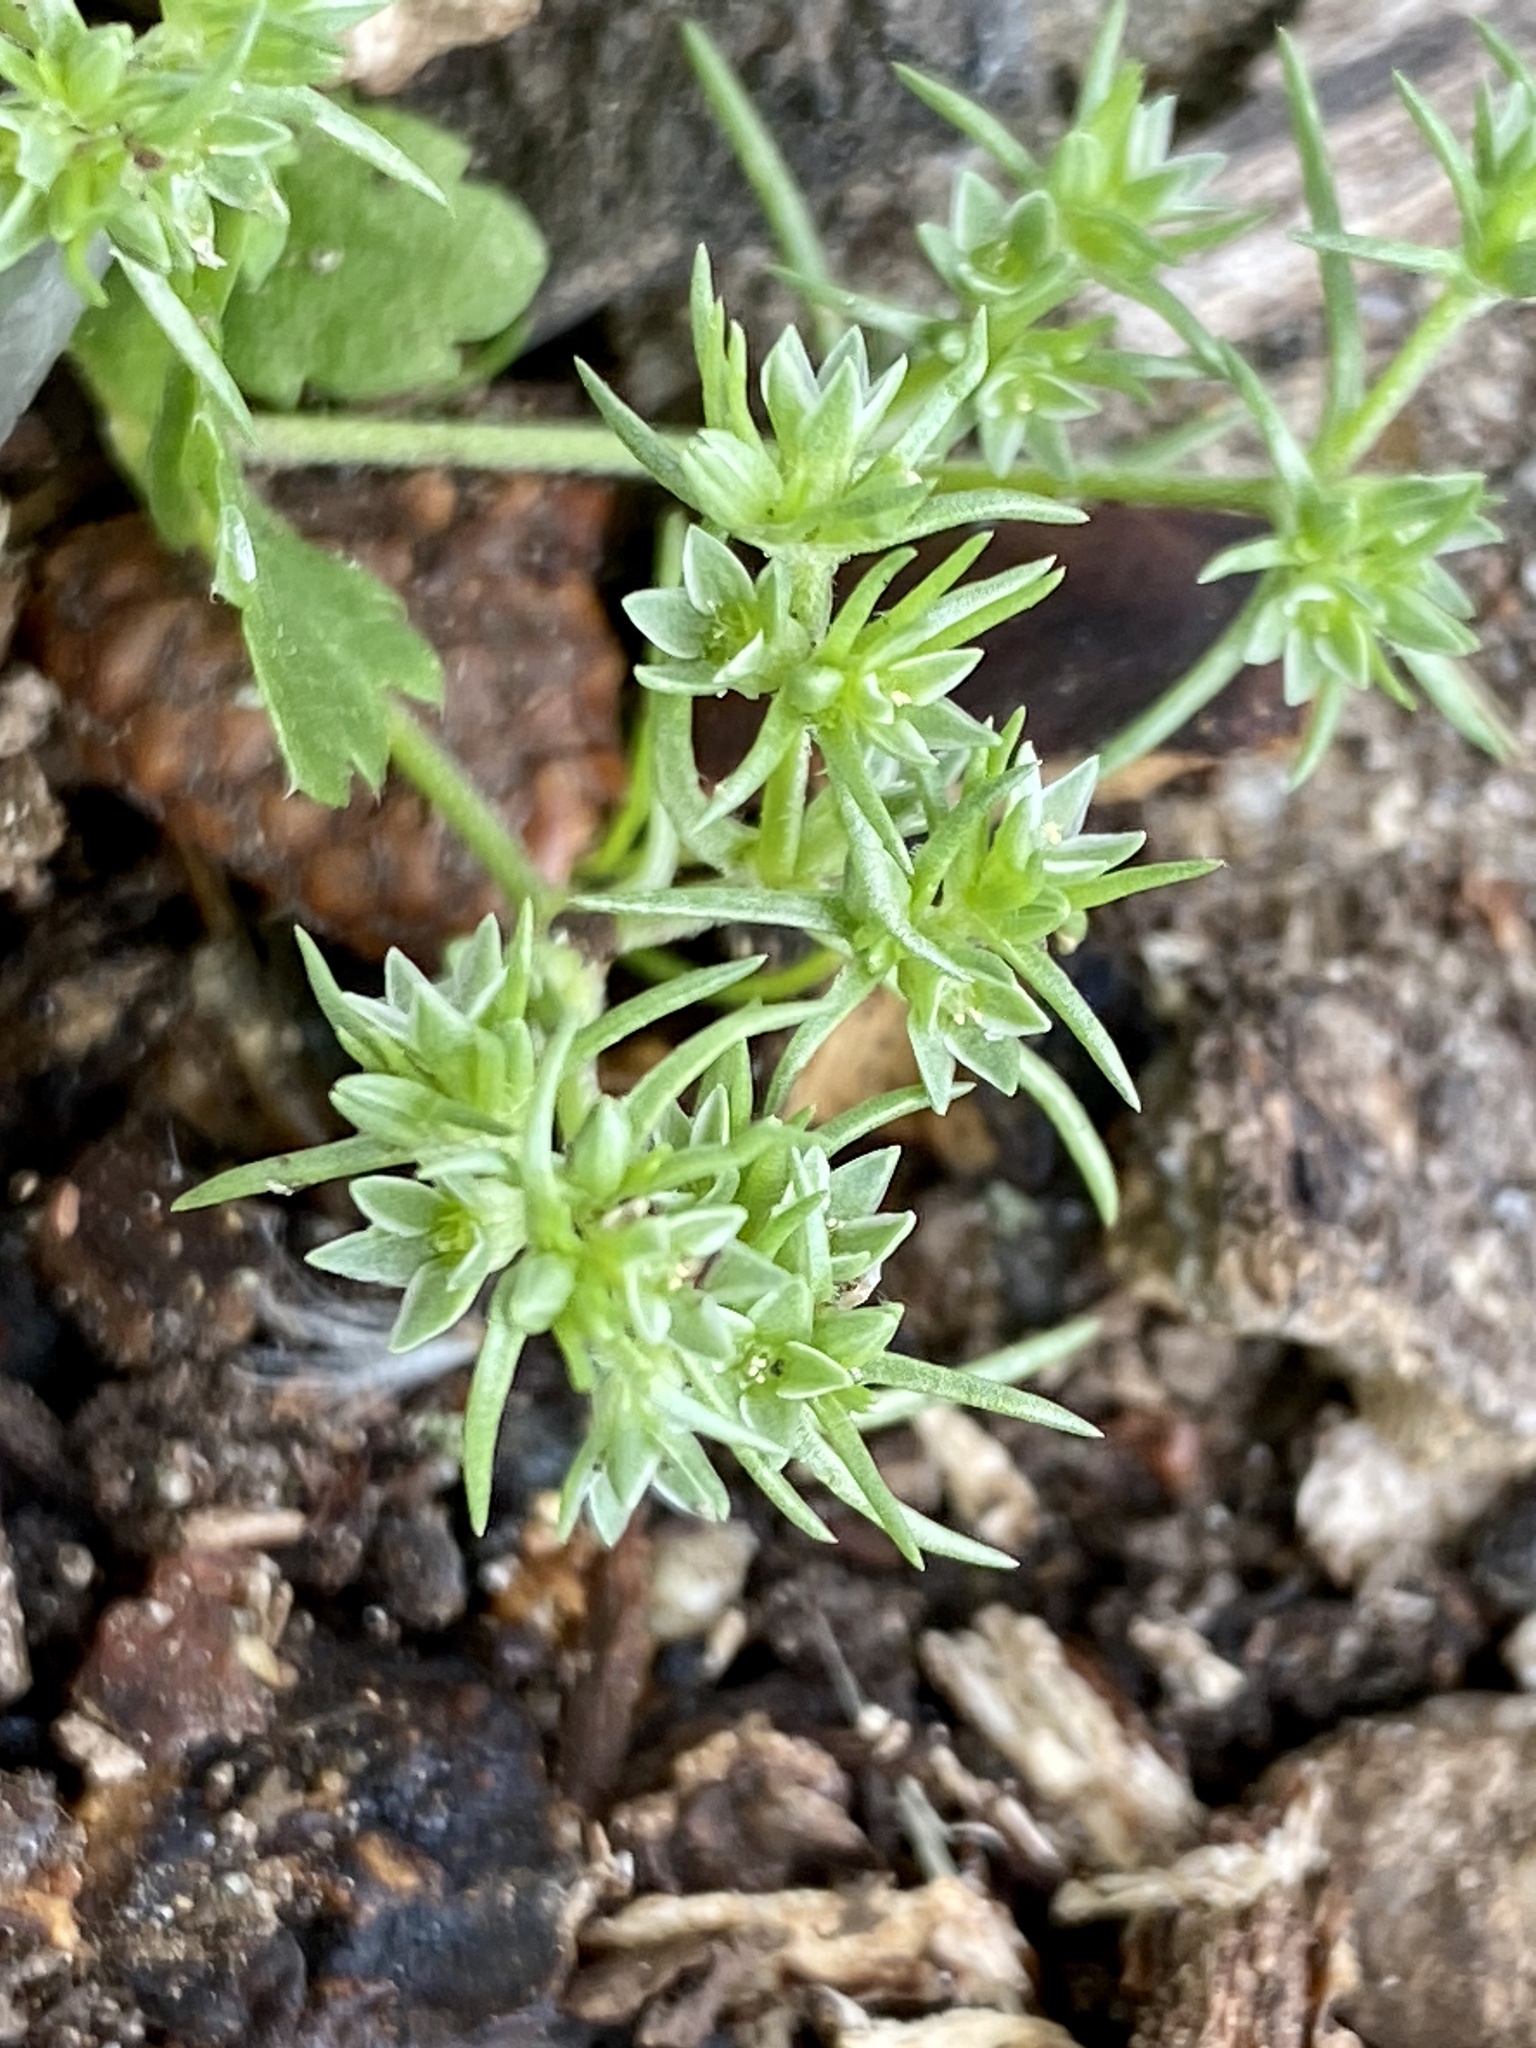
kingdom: Plantae
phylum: Tracheophyta
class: Magnoliopsida
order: Caryophyllales
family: Caryophyllaceae
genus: Scleranthus
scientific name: Scleranthus annuus
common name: Annual knawel
